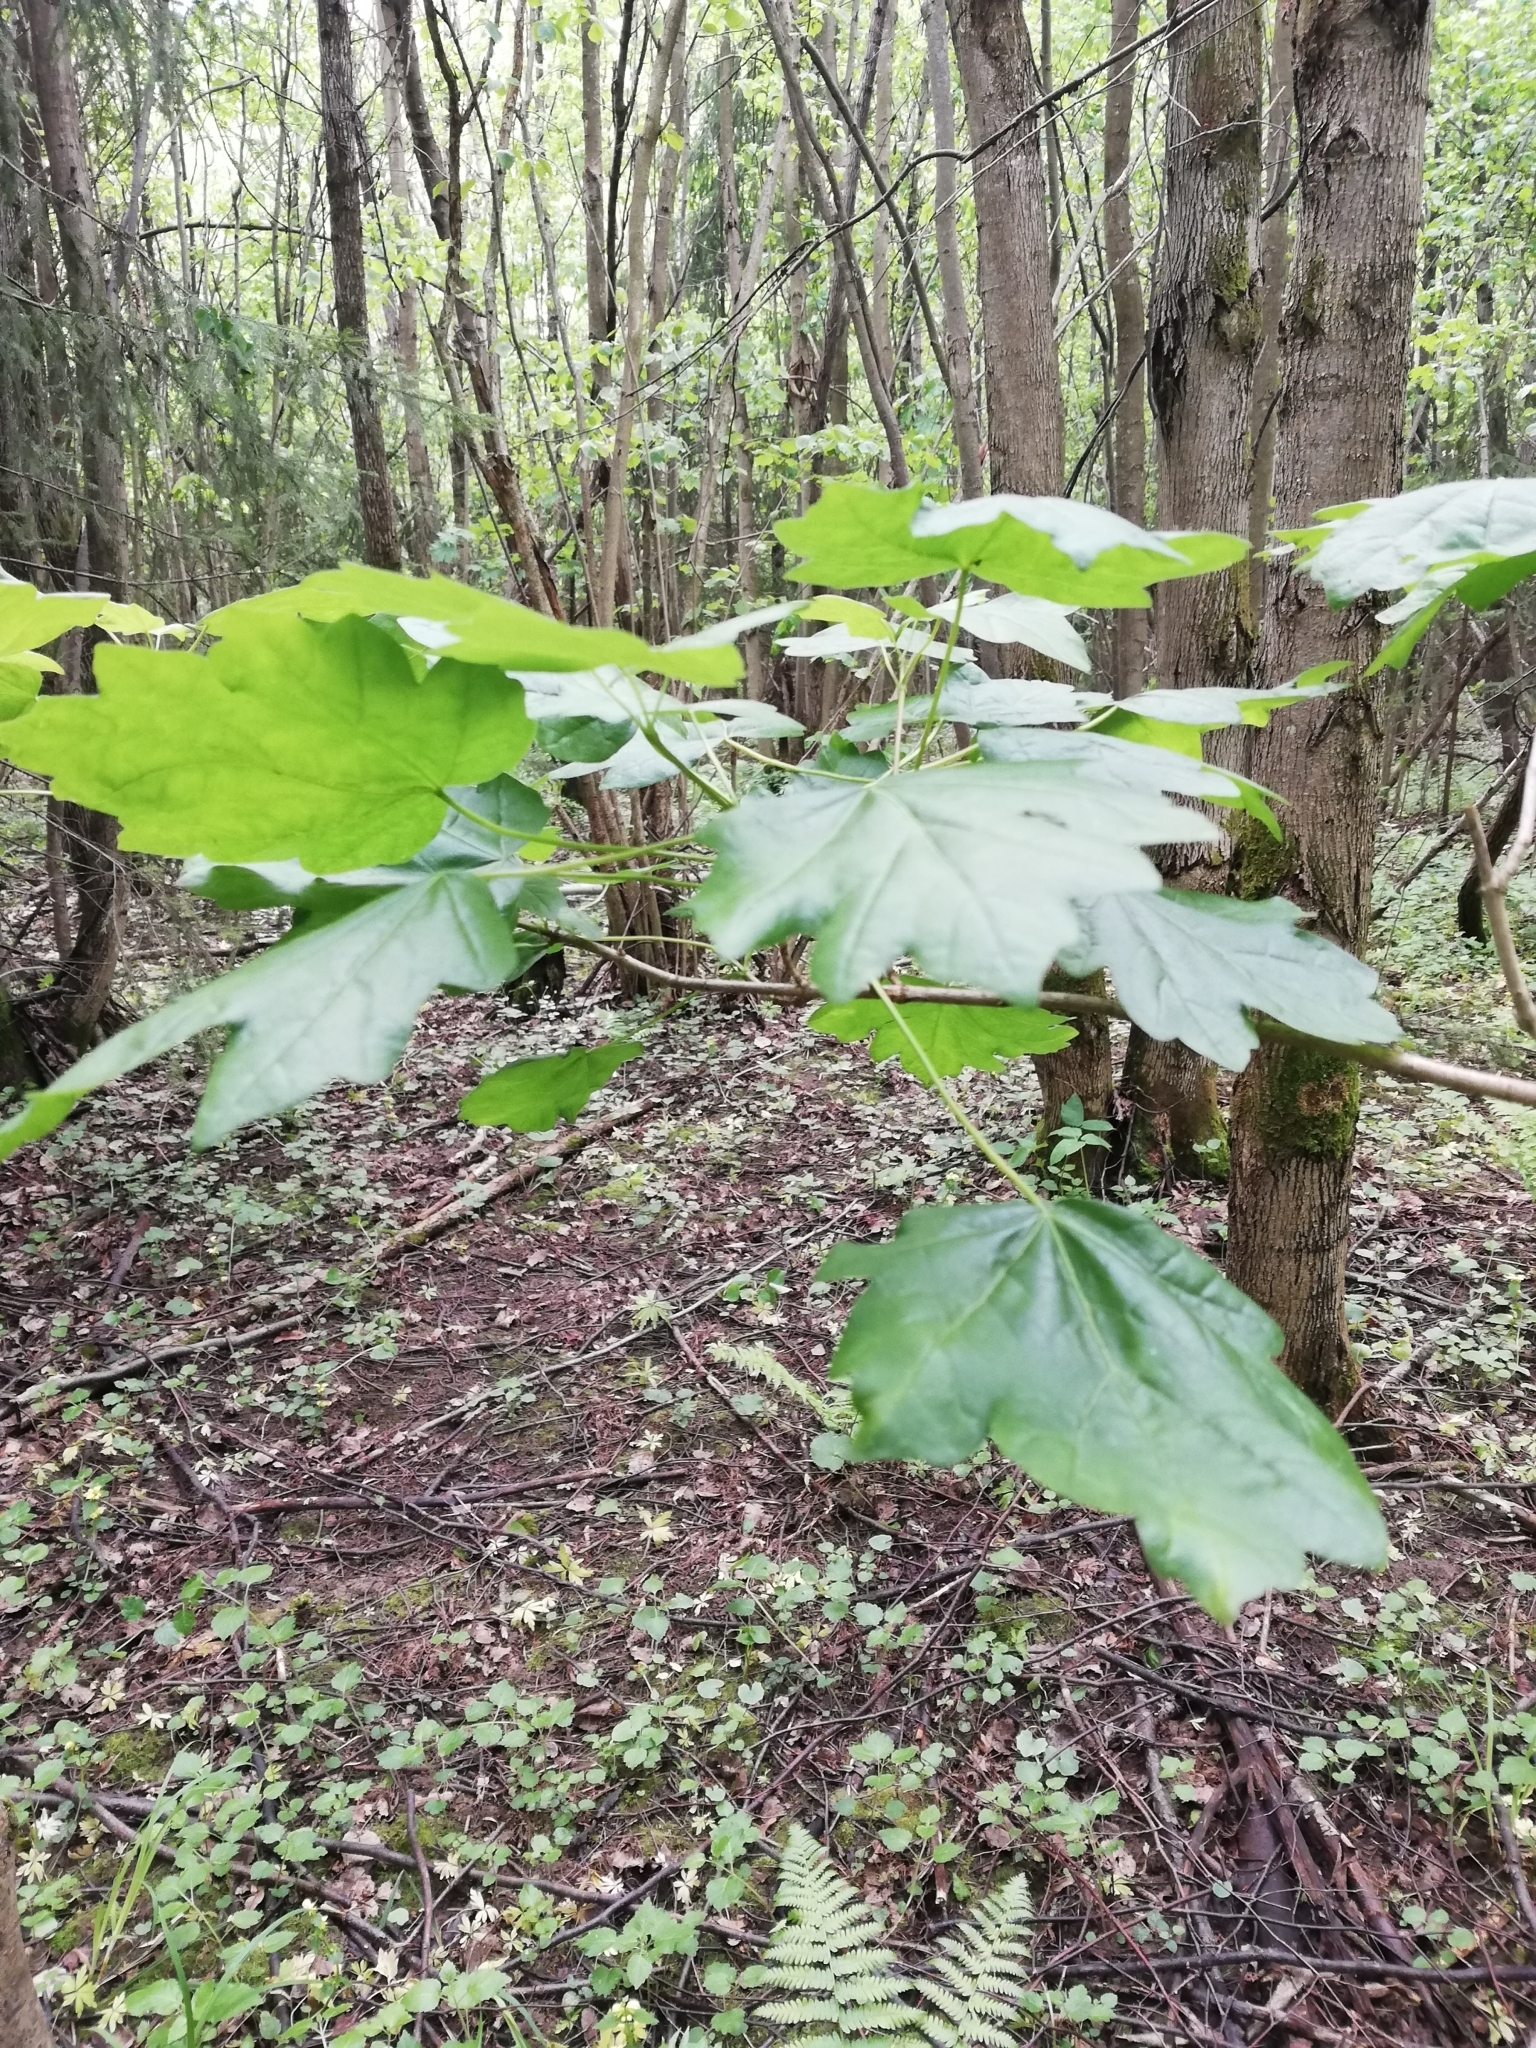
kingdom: Plantae
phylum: Tracheophyta
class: Magnoliopsida
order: Sapindales
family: Sapindaceae
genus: Acer
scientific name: Acer campestre
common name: Field maple
